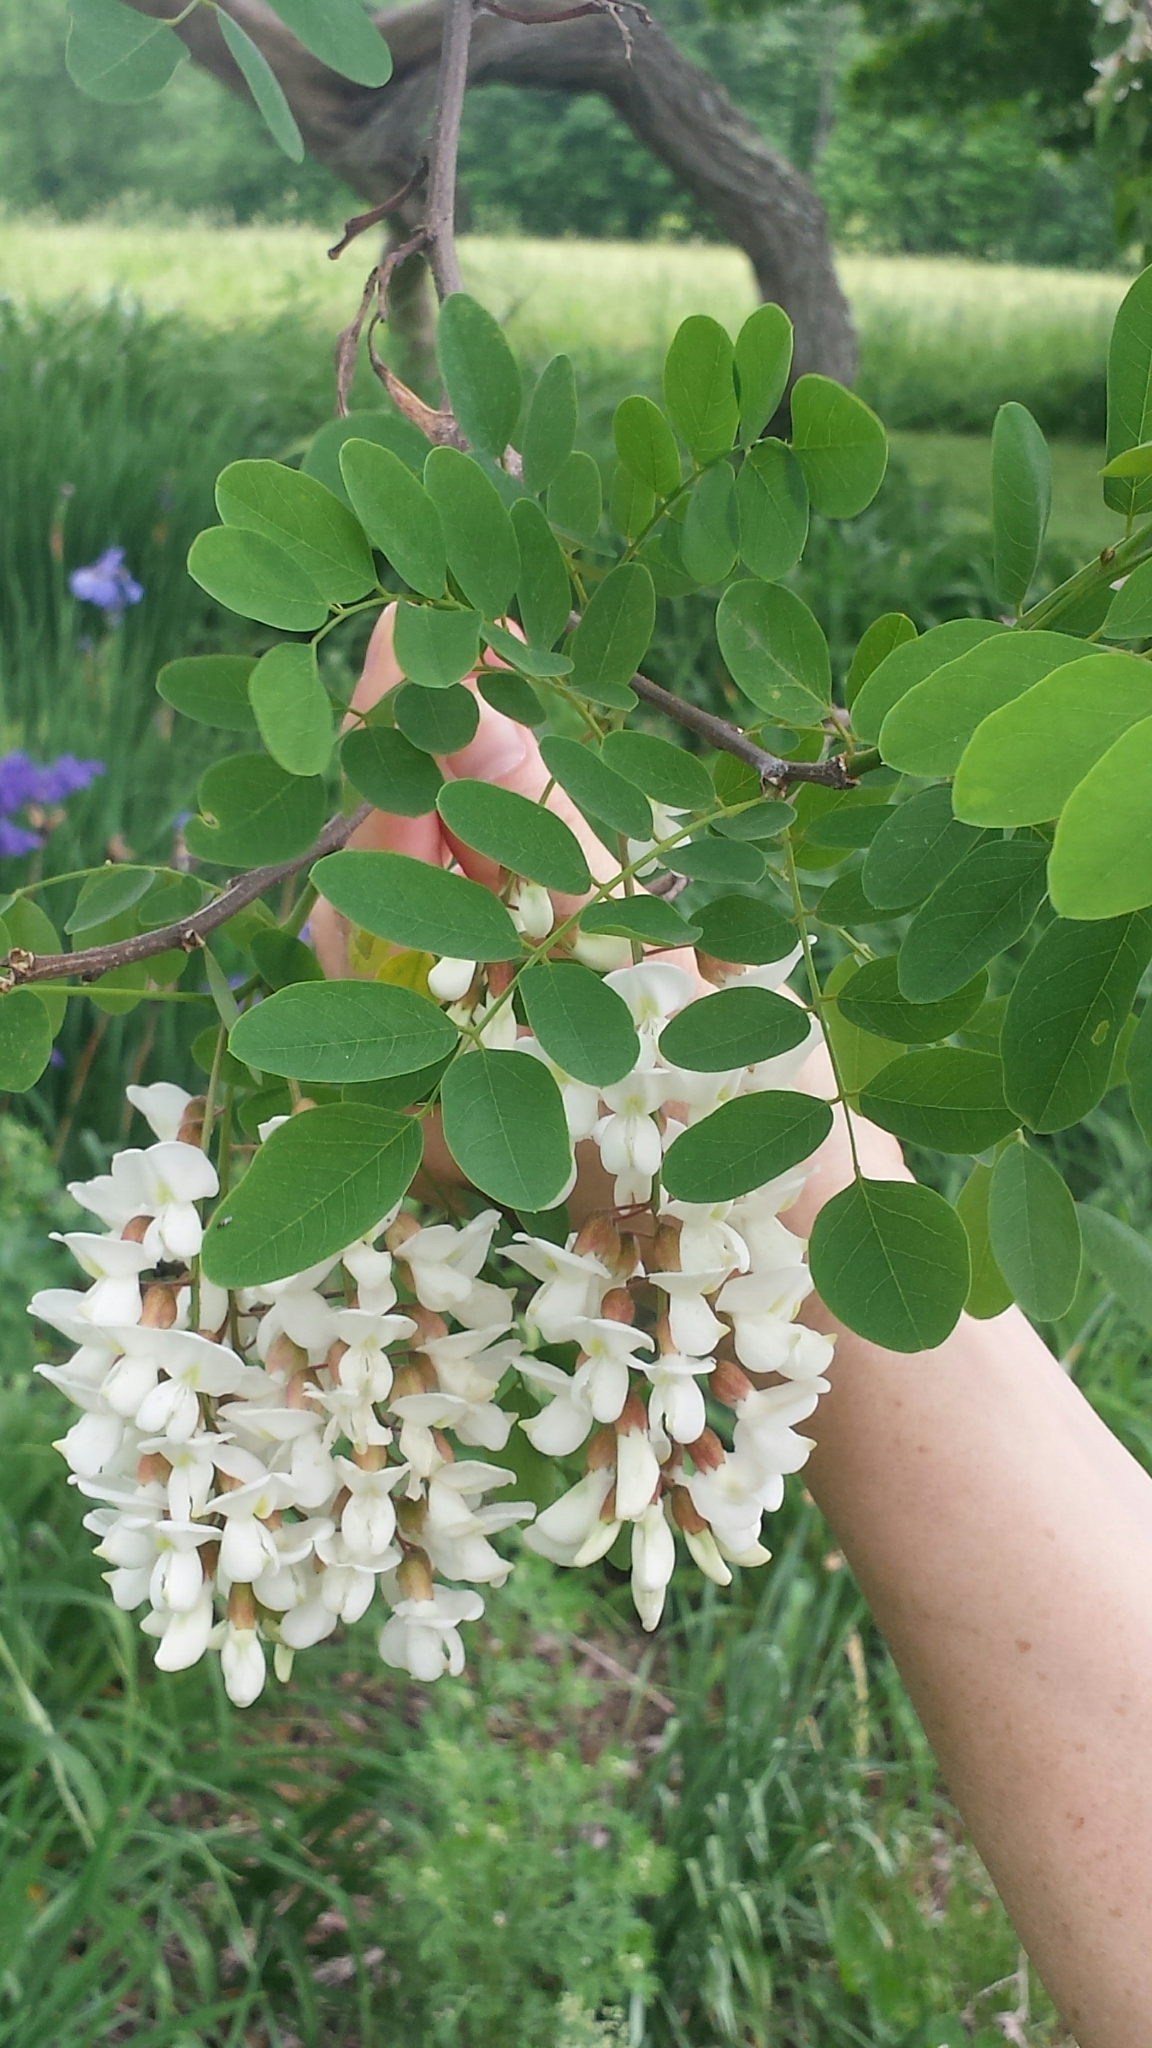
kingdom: Plantae
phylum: Tracheophyta
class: Magnoliopsida
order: Fabales
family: Fabaceae
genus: Robinia
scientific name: Robinia pseudoacacia
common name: Black locust
